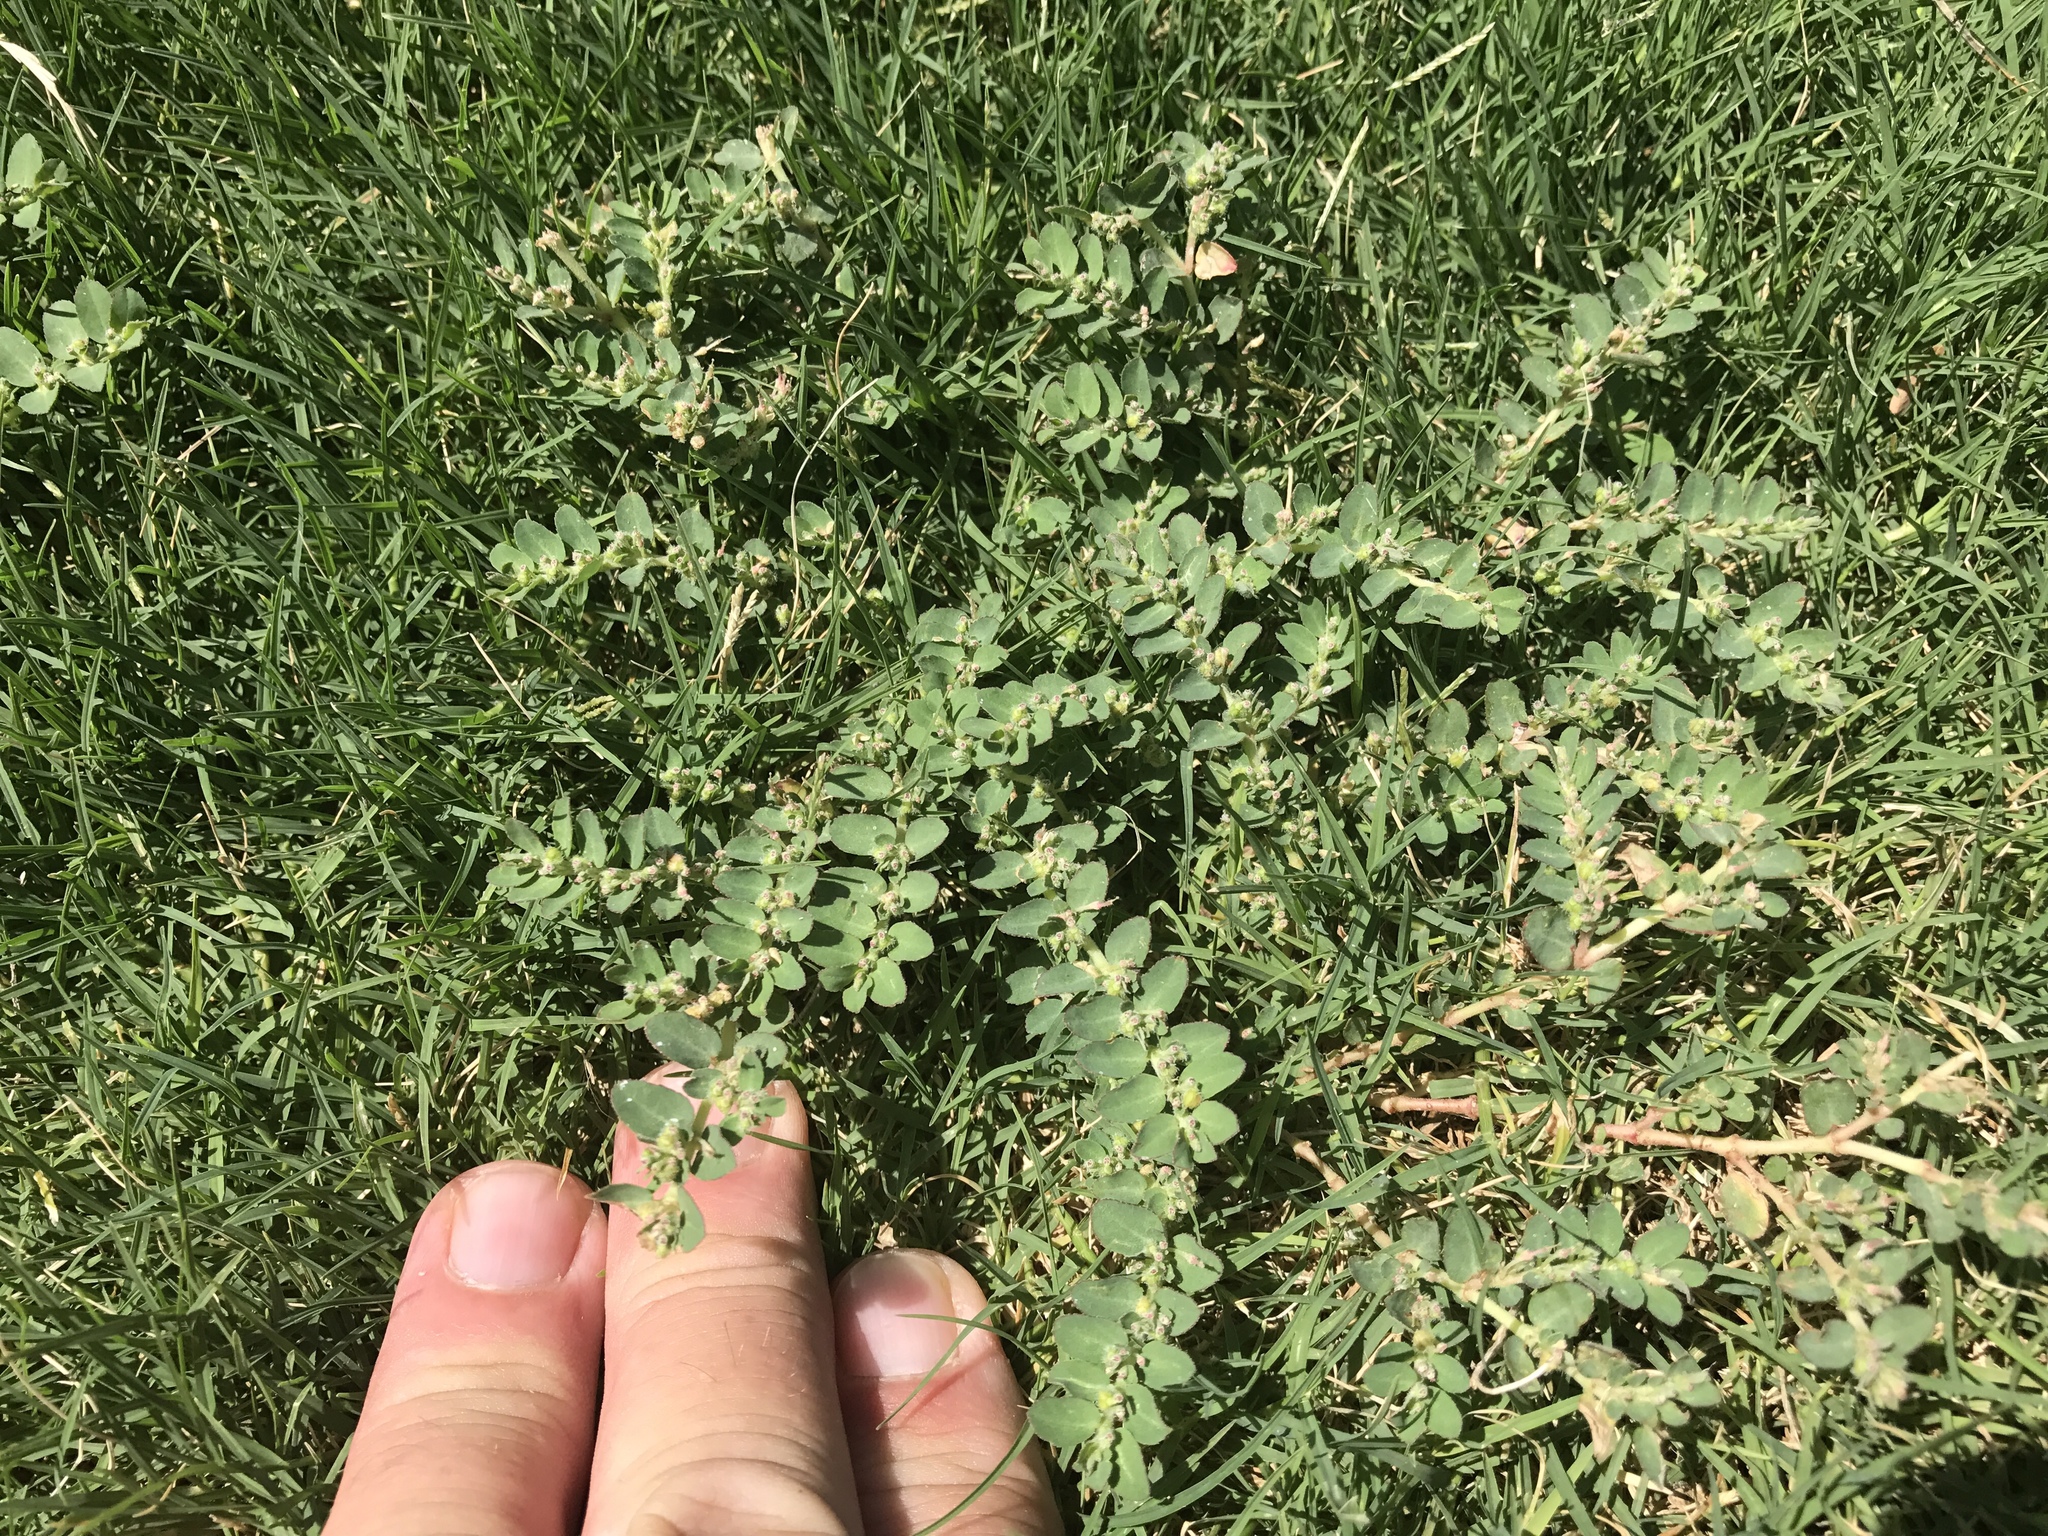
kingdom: Plantae
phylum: Tracheophyta
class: Magnoliopsida
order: Malpighiales
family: Euphorbiaceae
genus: Euphorbia
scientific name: Euphorbia prostrata
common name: Prostrate sandmat
